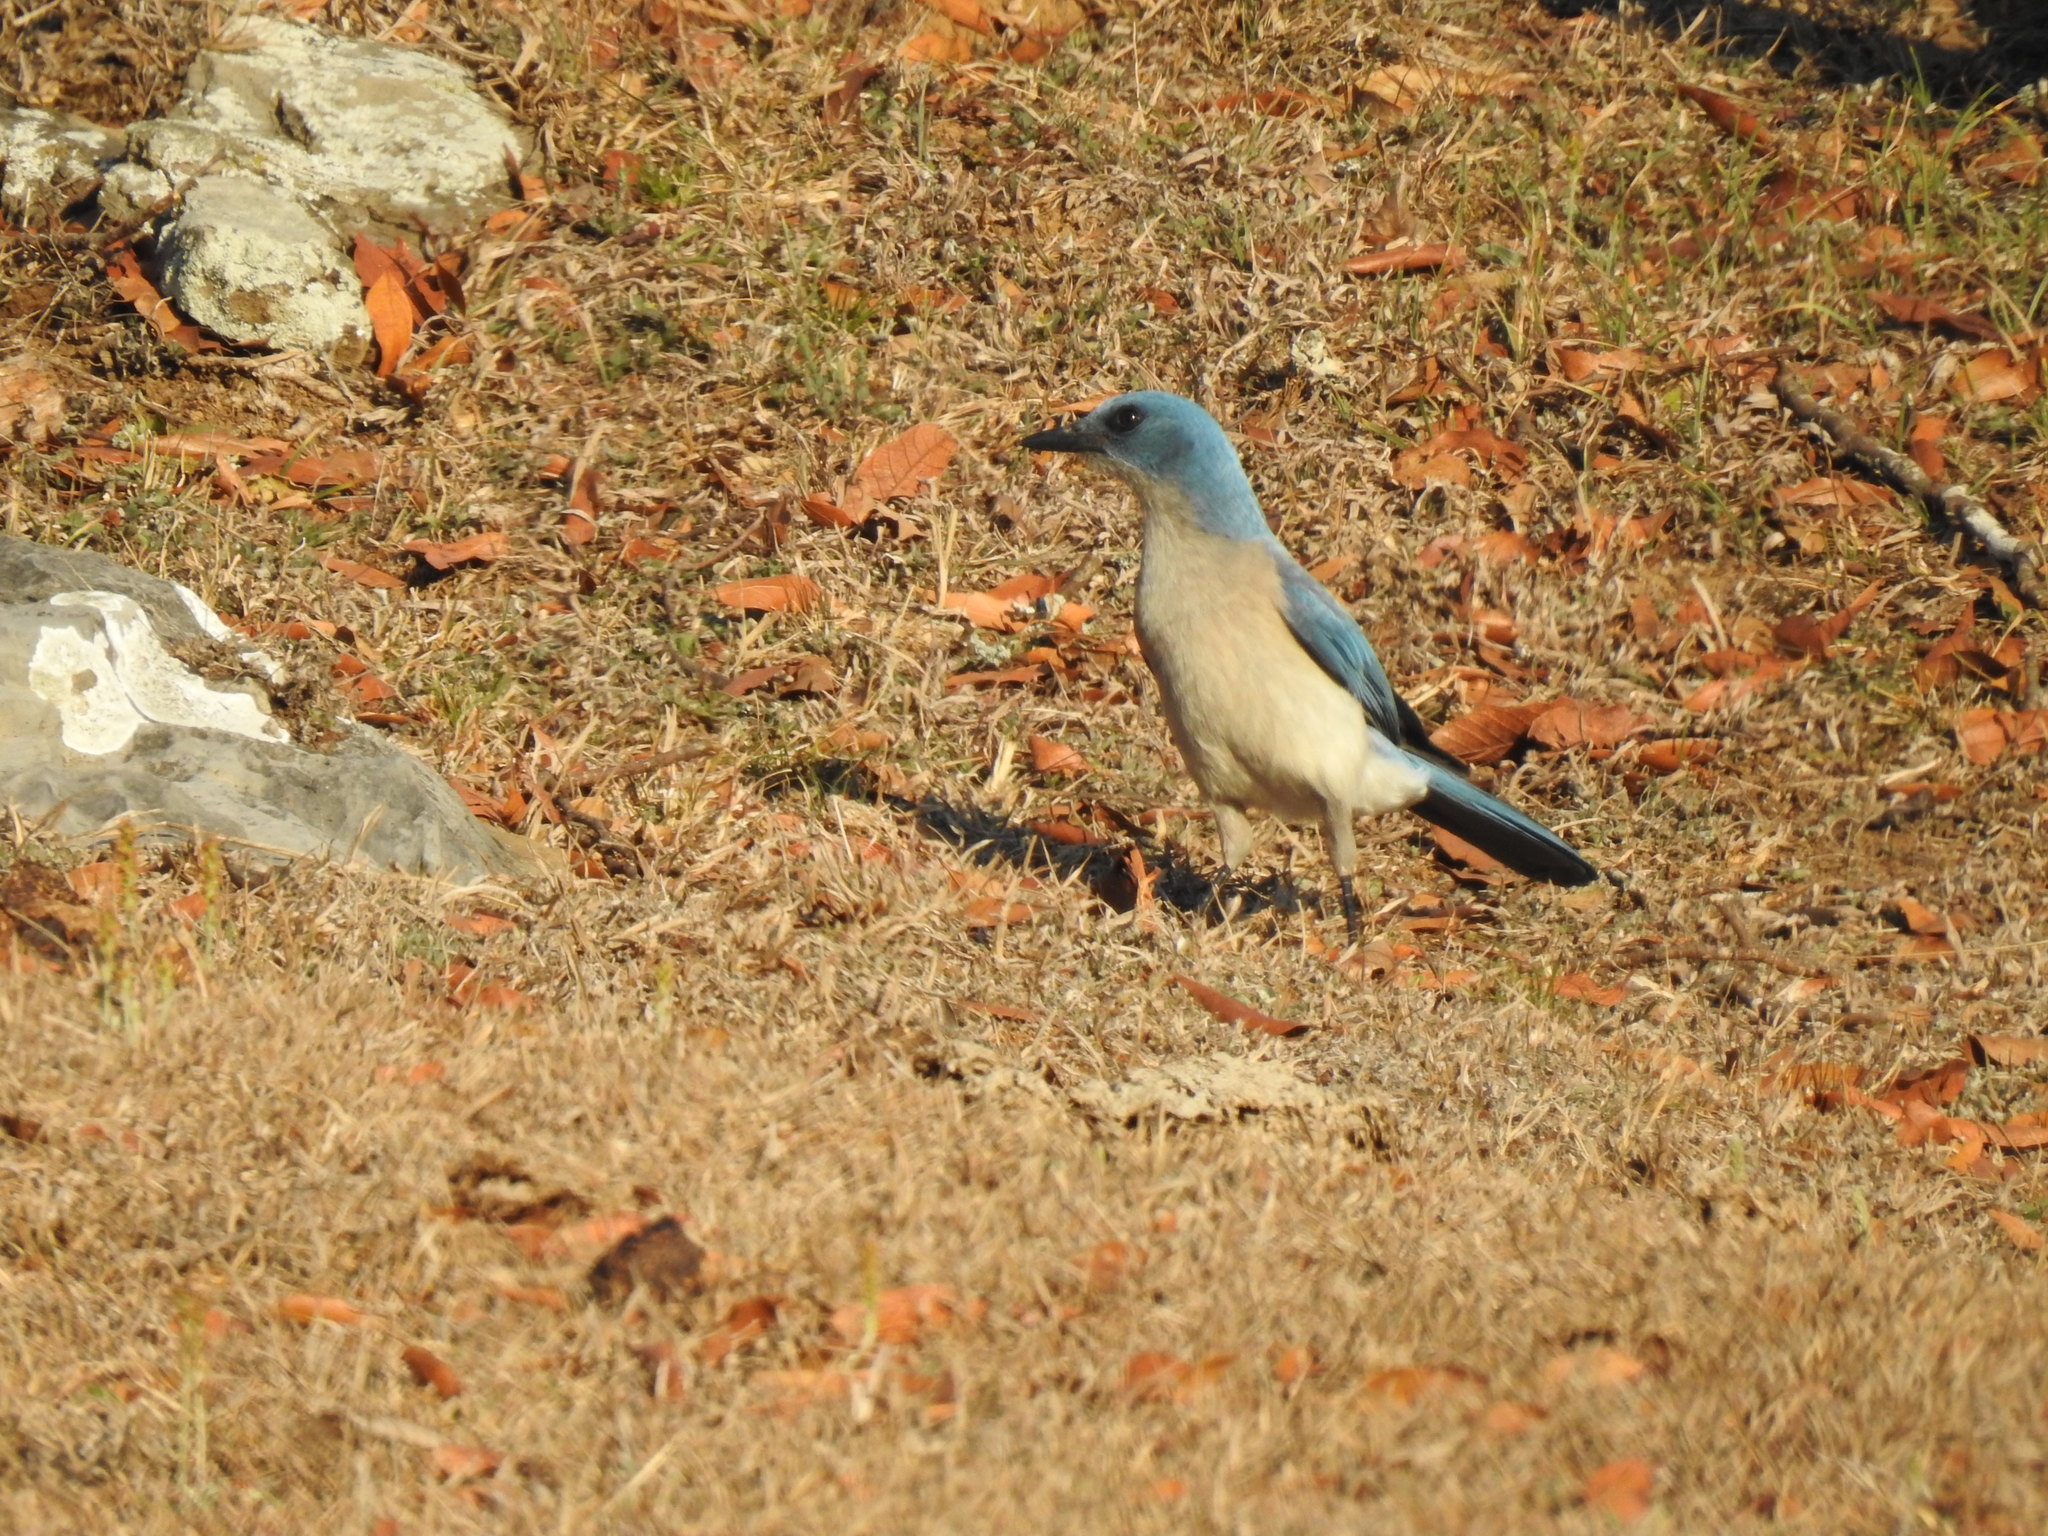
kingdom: Animalia
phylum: Chordata
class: Aves
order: Passeriformes
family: Corvidae
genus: Aphelocoma
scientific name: Aphelocoma wollweberi
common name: Mexican jay
